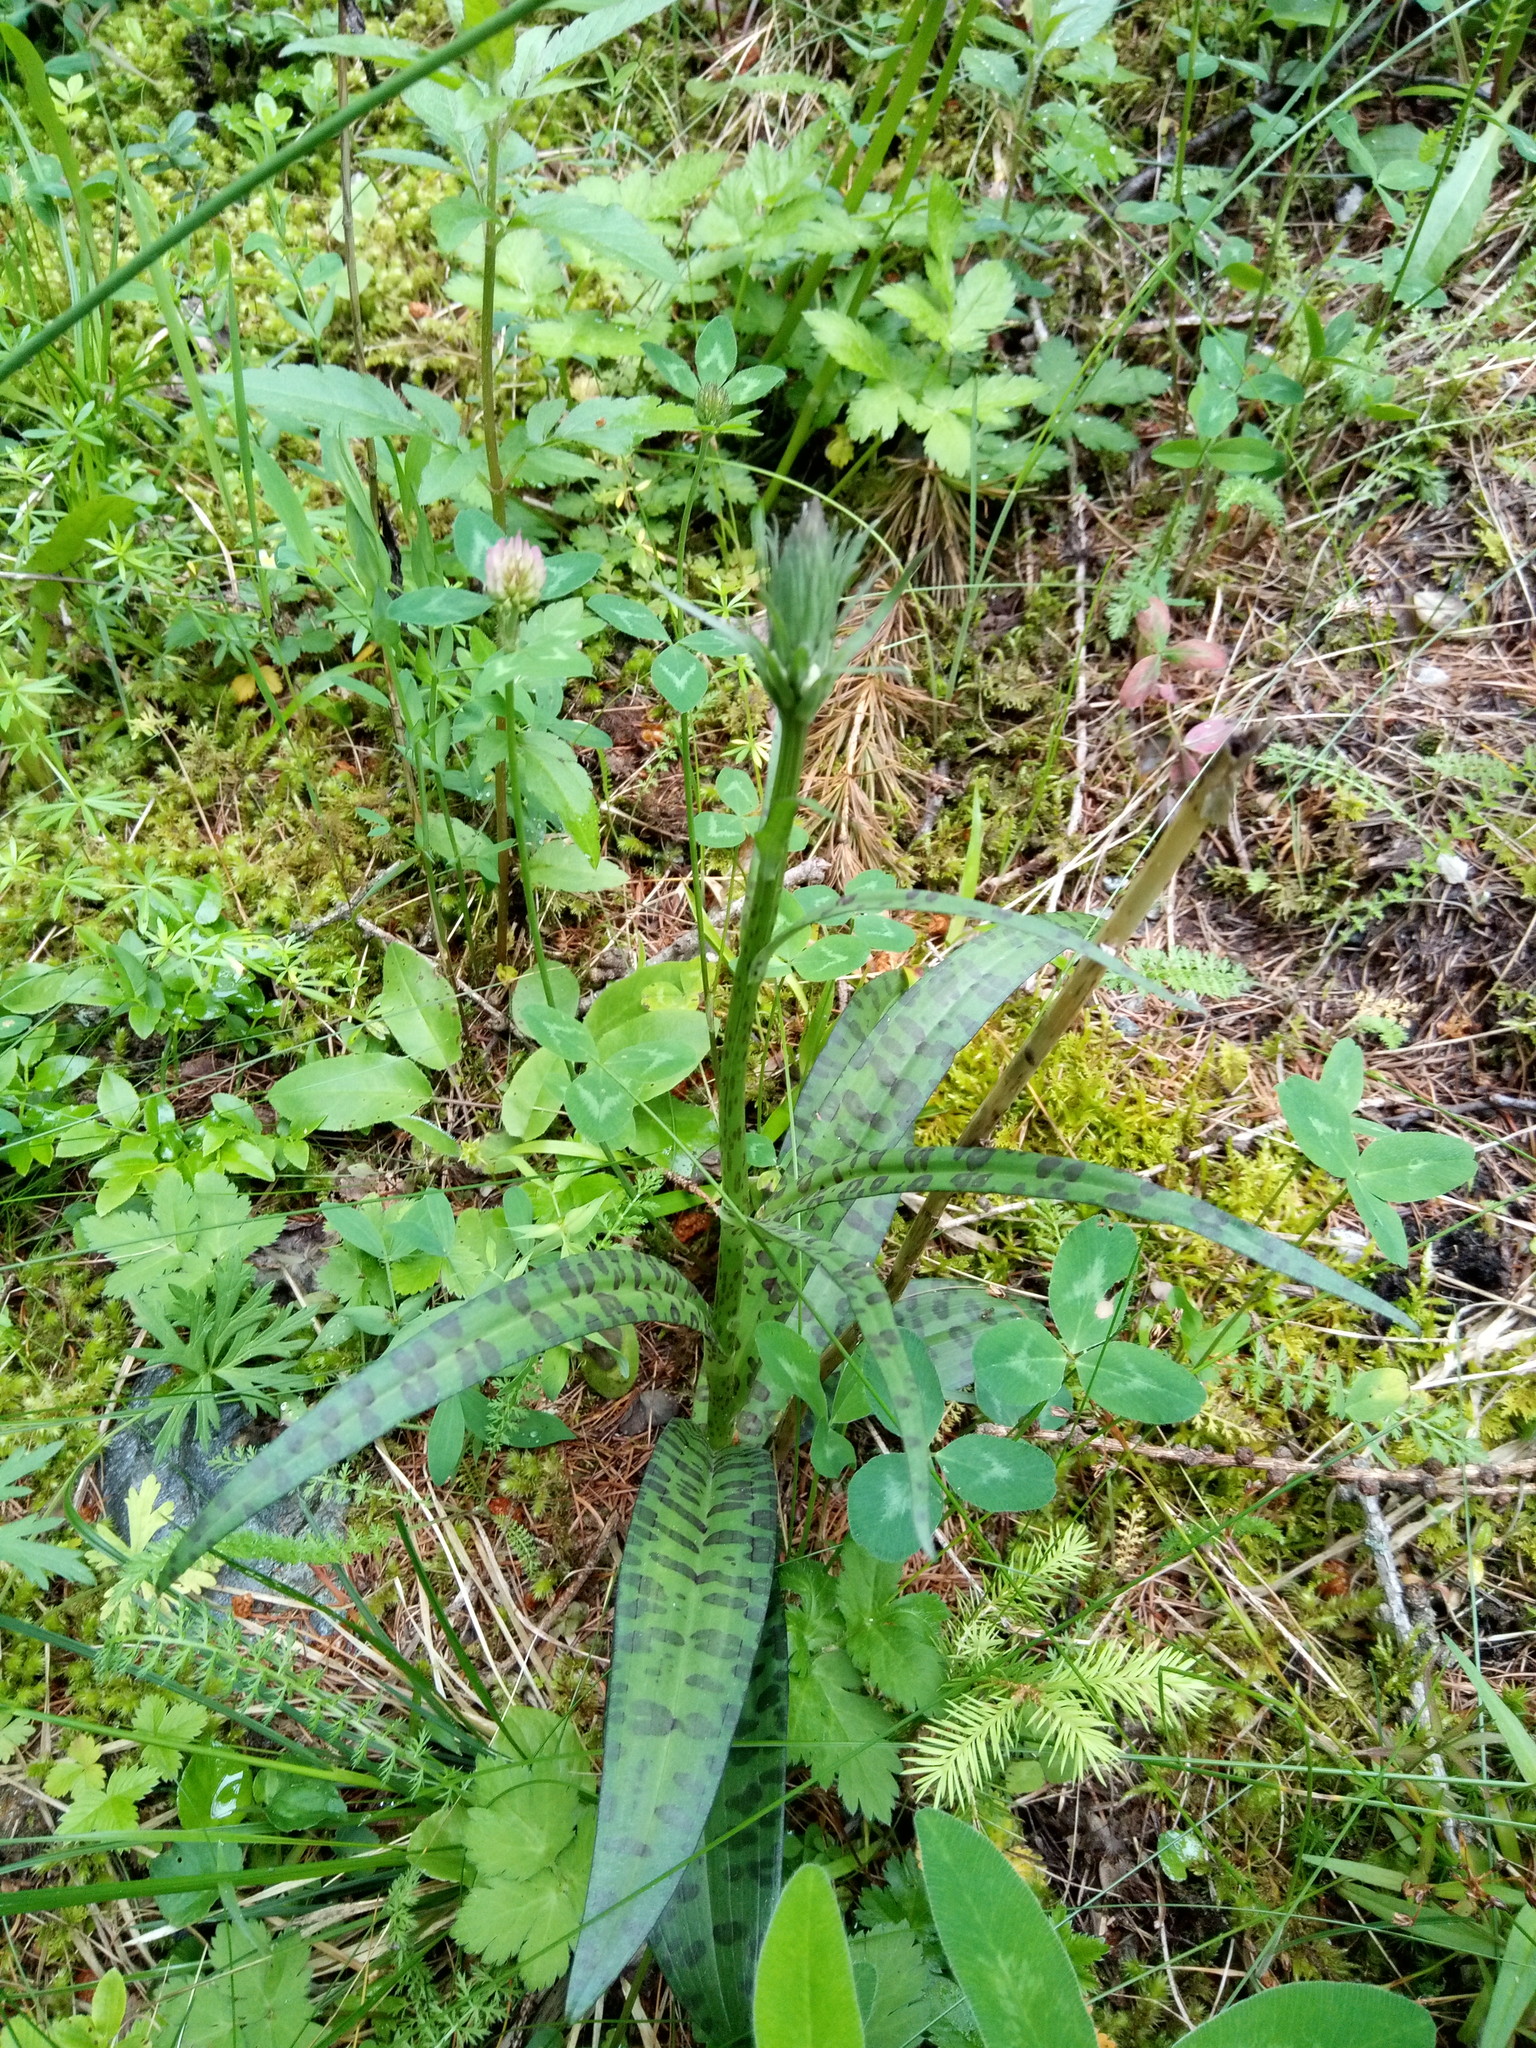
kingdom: Plantae
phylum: Tracheophyta
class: Liliopsida
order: Asparagales
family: Orchidaceae
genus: Dactylorhiza
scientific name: Dactylorhiza maculata
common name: Heath spotted-orchid
